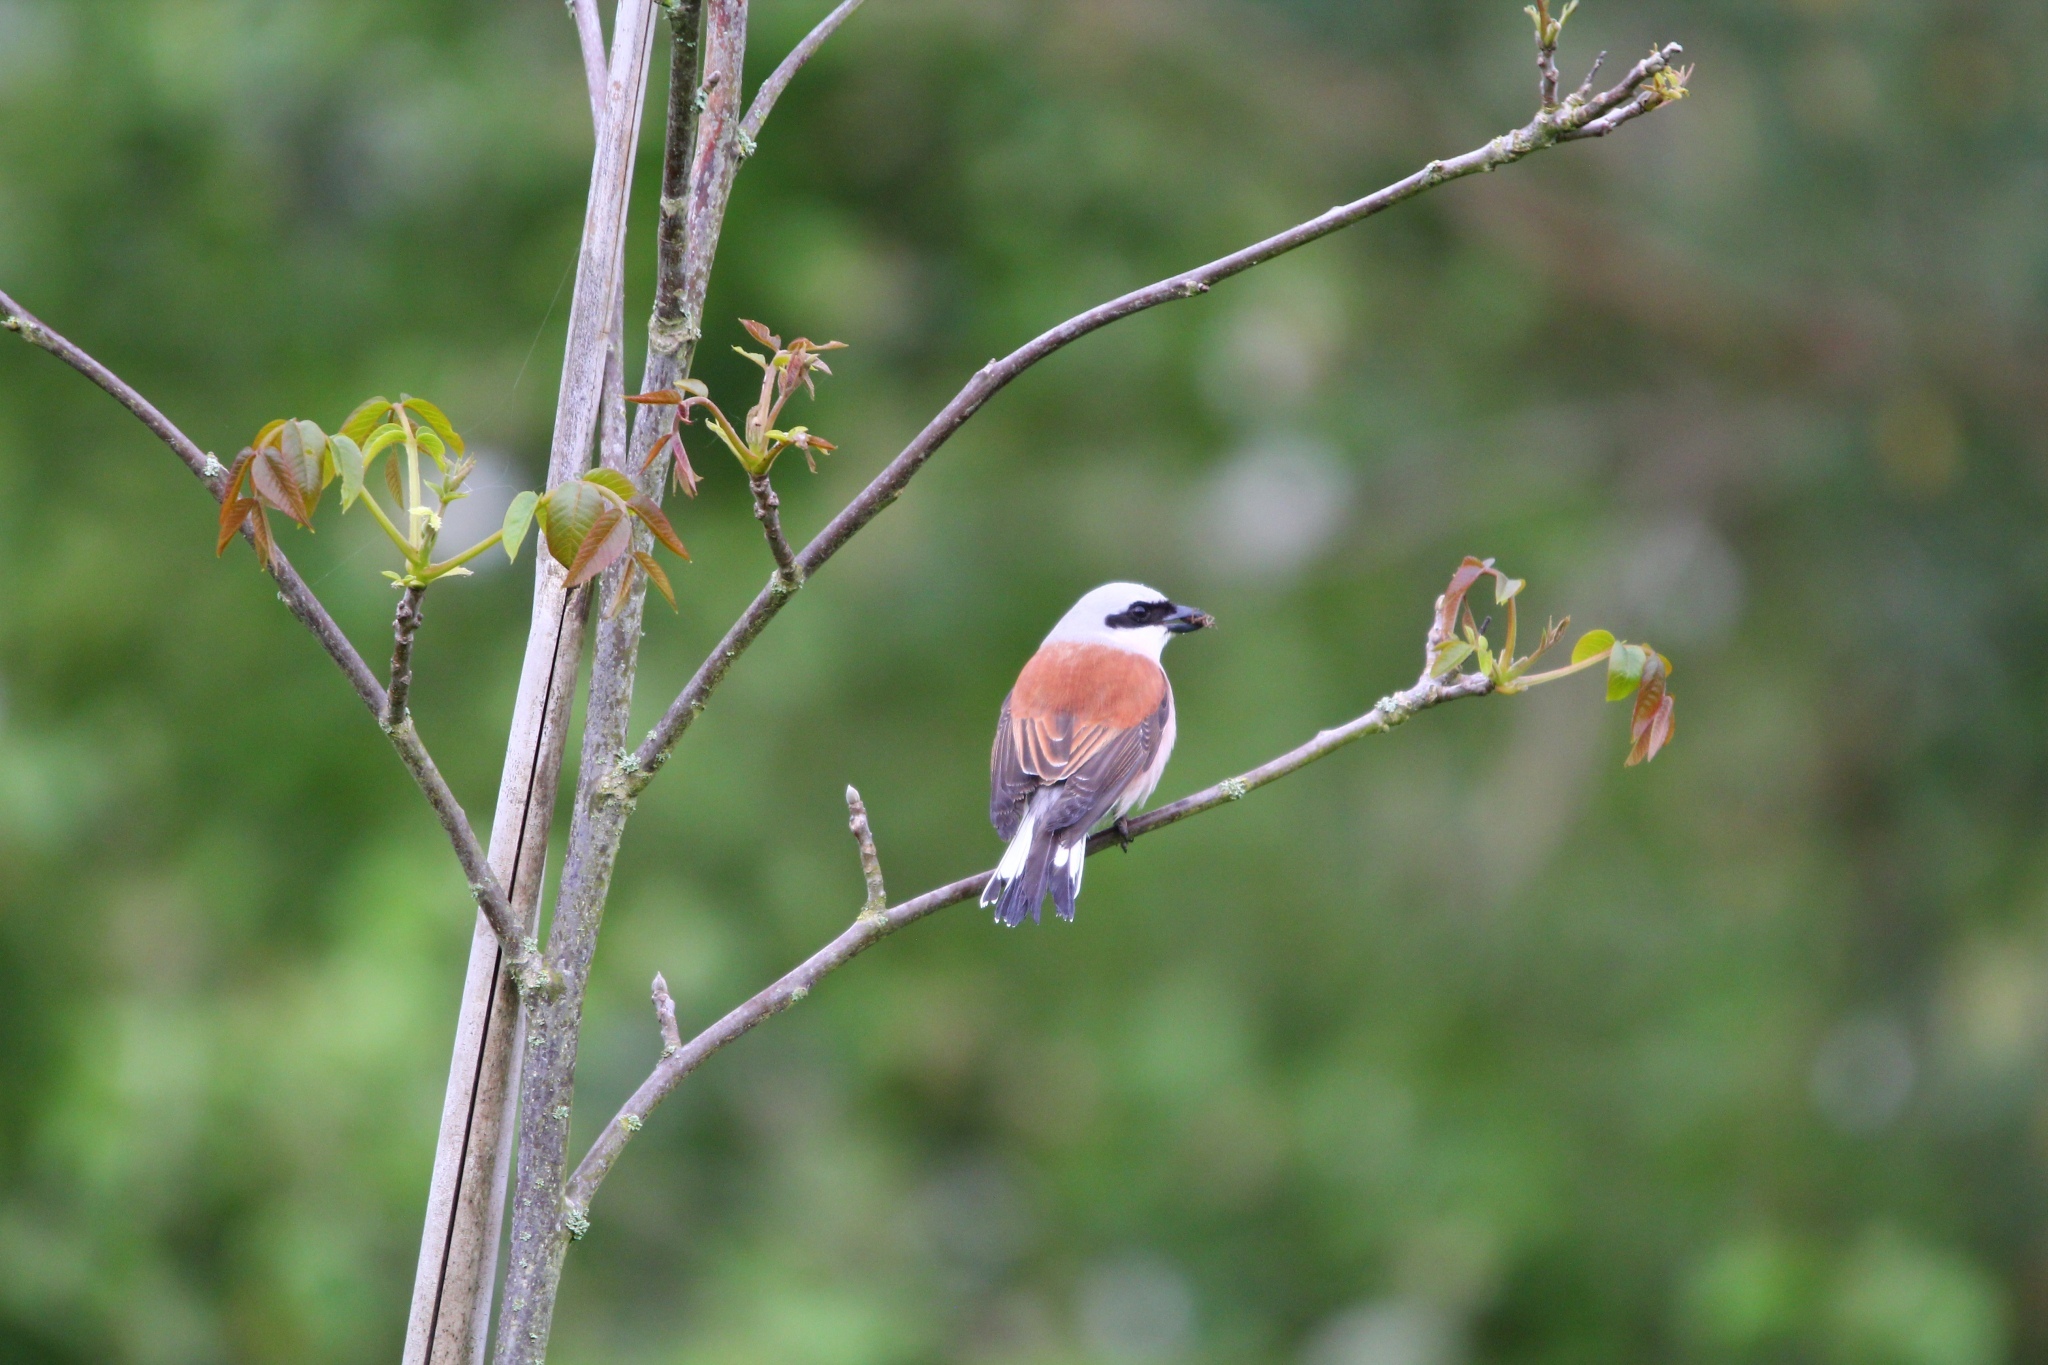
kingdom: Animalia
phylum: Chordata
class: Aves
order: Passeriformes
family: Laniidae
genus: Lanius
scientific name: Lanius collurio
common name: Red-backed shrike
